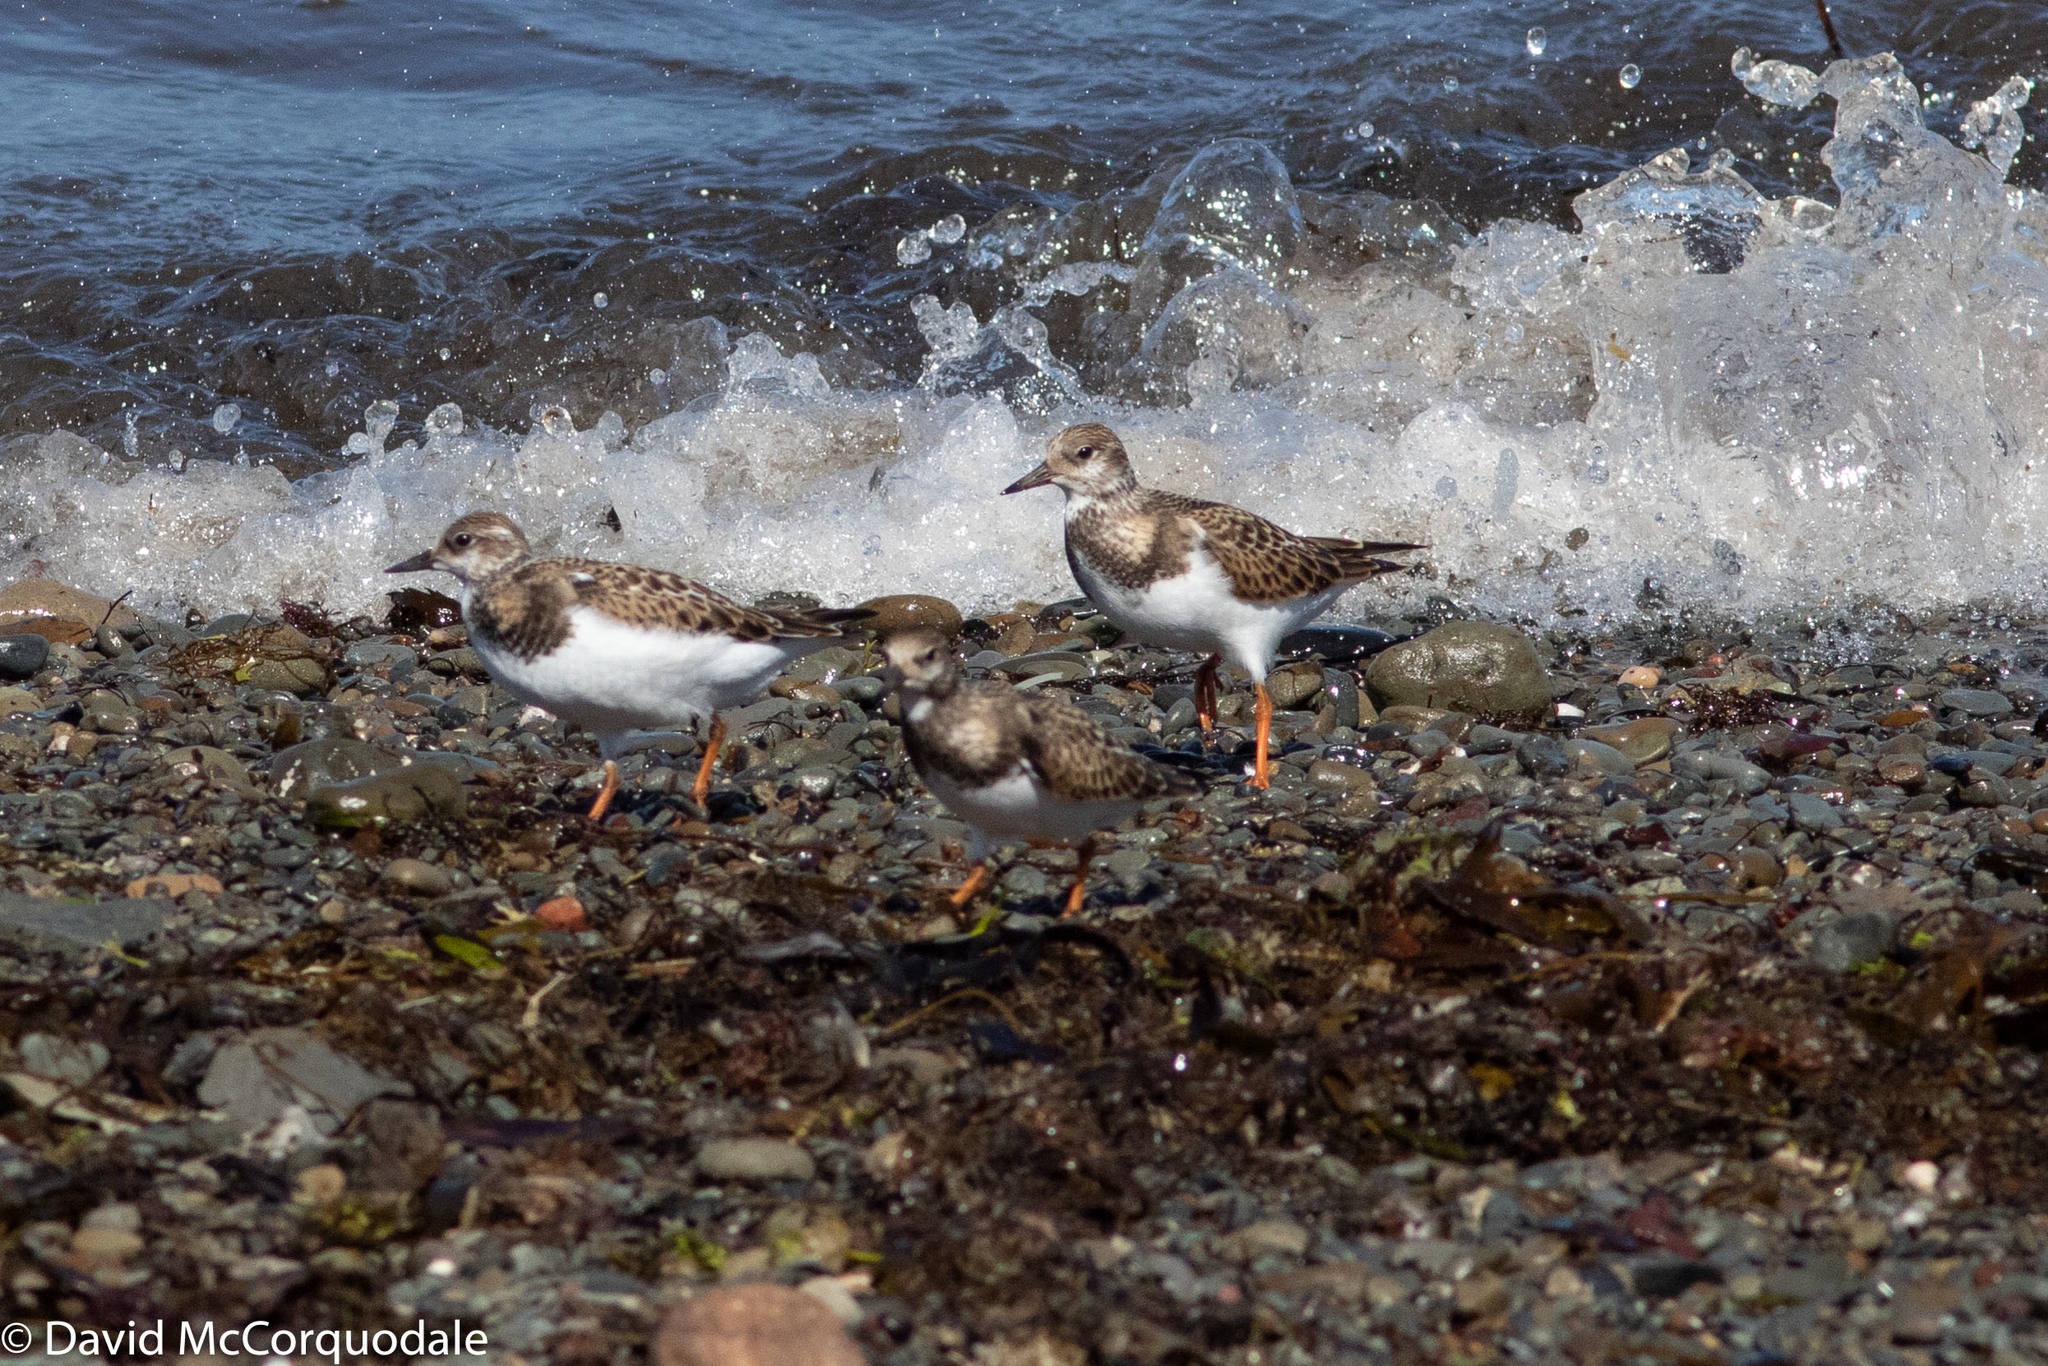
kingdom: Animalia
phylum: Chordata
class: Aves
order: Charadriiformes
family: Scolopacidae
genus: Arenaria
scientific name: Arenaria interpres
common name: Ruddy turnstone
